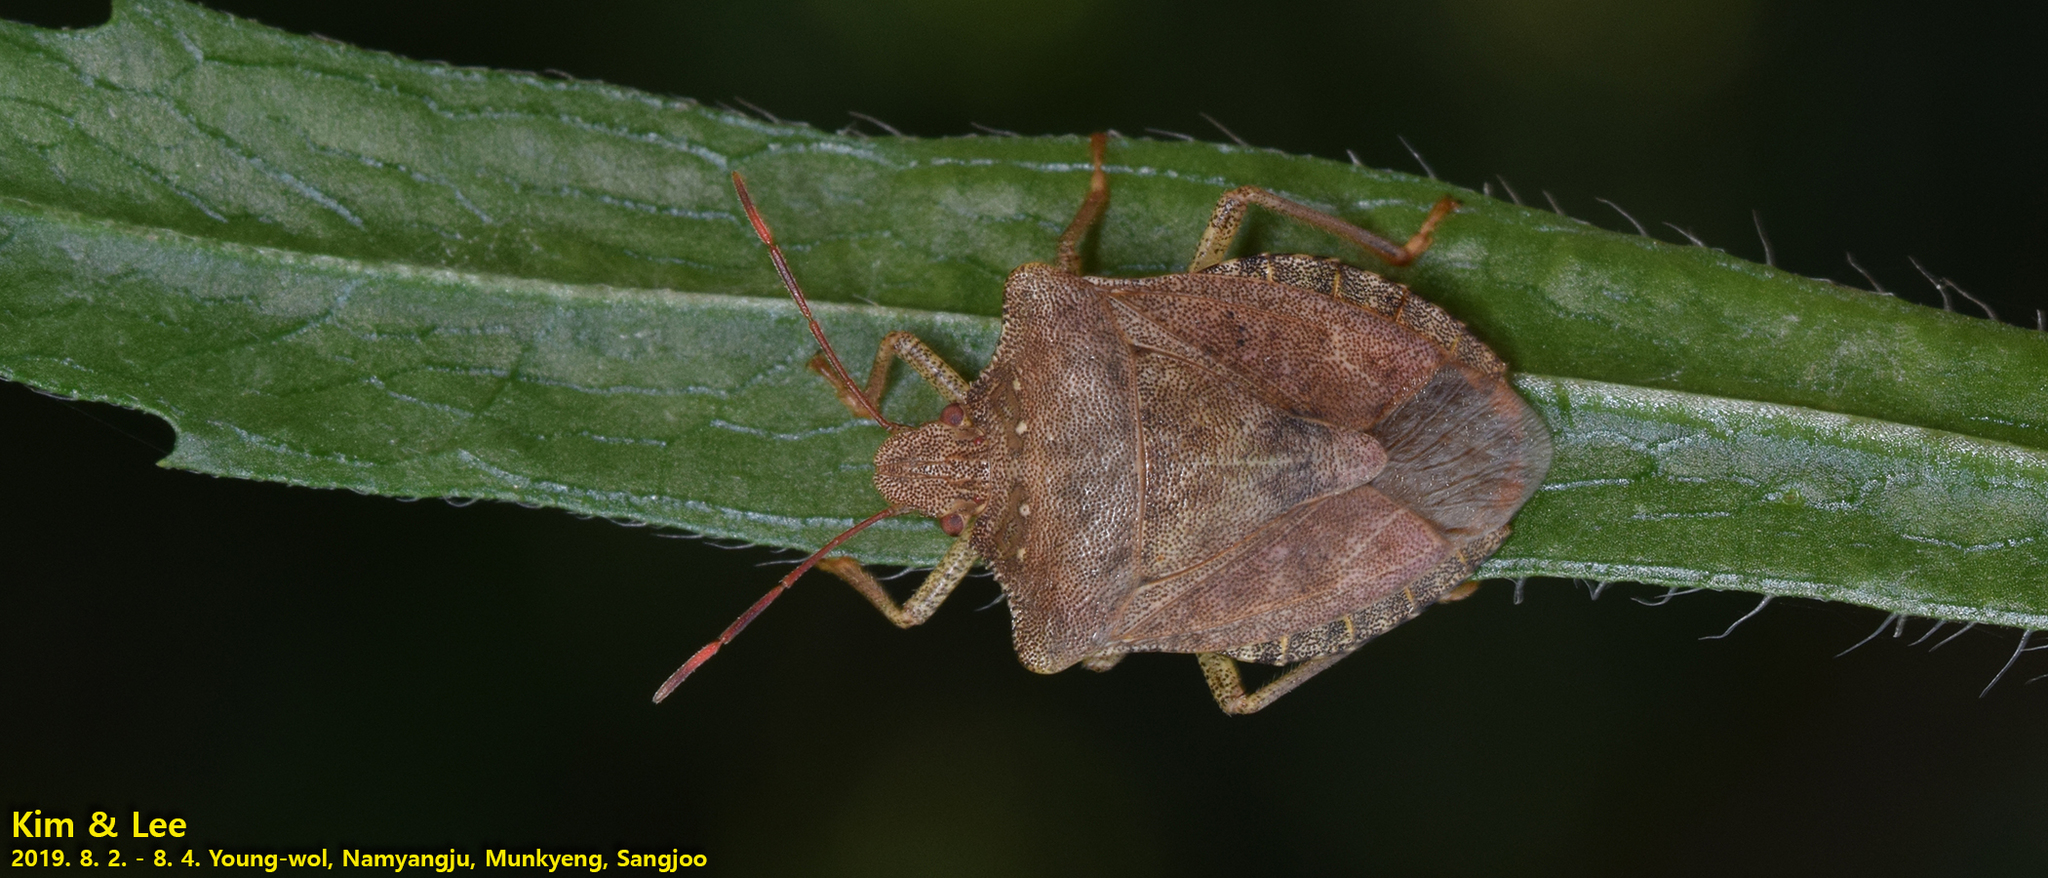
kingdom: Animalia
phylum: Arthropoda
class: Insecta
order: Hemiptera
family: Pentatomidae
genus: Homalogonia
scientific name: Homalogonia obtusa
